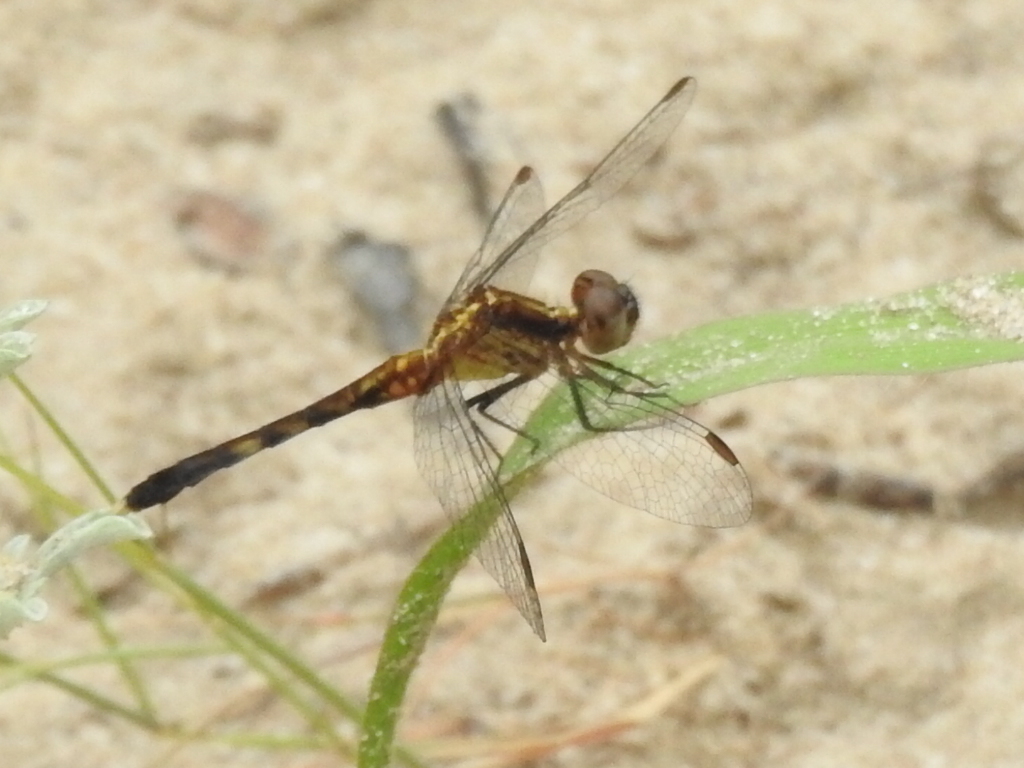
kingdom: Animalia
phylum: Arthropoda
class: Insecta
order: Odonata
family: Libellulidae
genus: Erythrodiplax
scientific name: Erythrodiplax minuscula
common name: Little blue dragonlet
